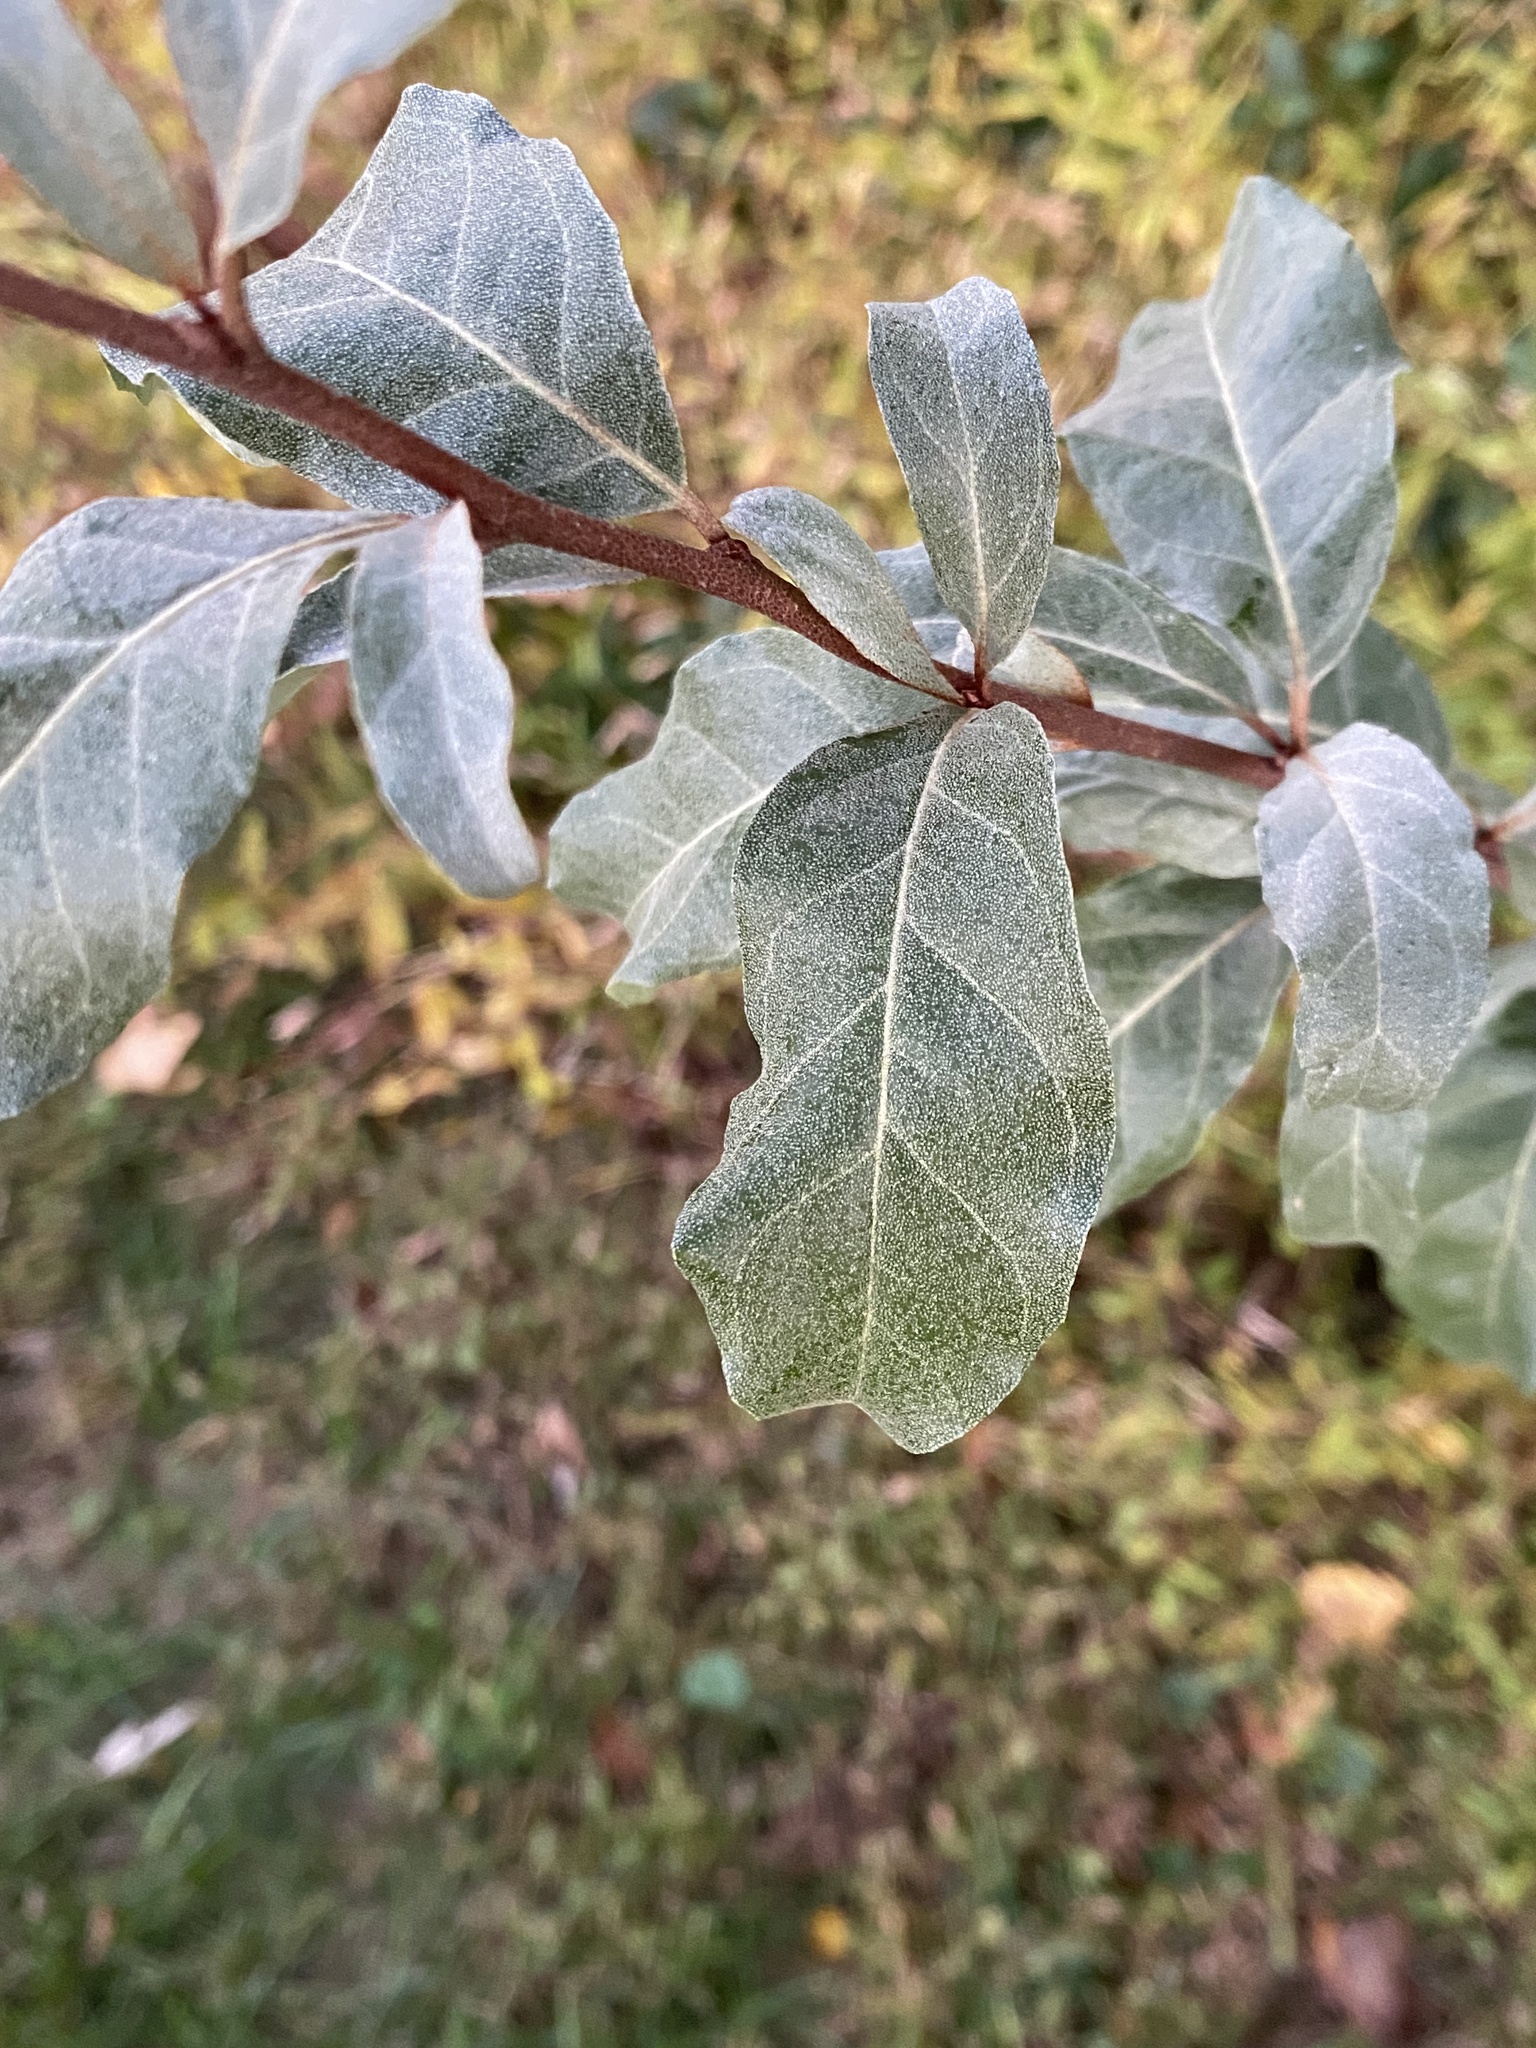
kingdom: Plantae
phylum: Tracheophyta
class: Magnoliopsida
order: Rosales
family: Elaeagnaceae
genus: Elaeagnus
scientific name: Elaeagnus umbellata
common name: Autumn olive
